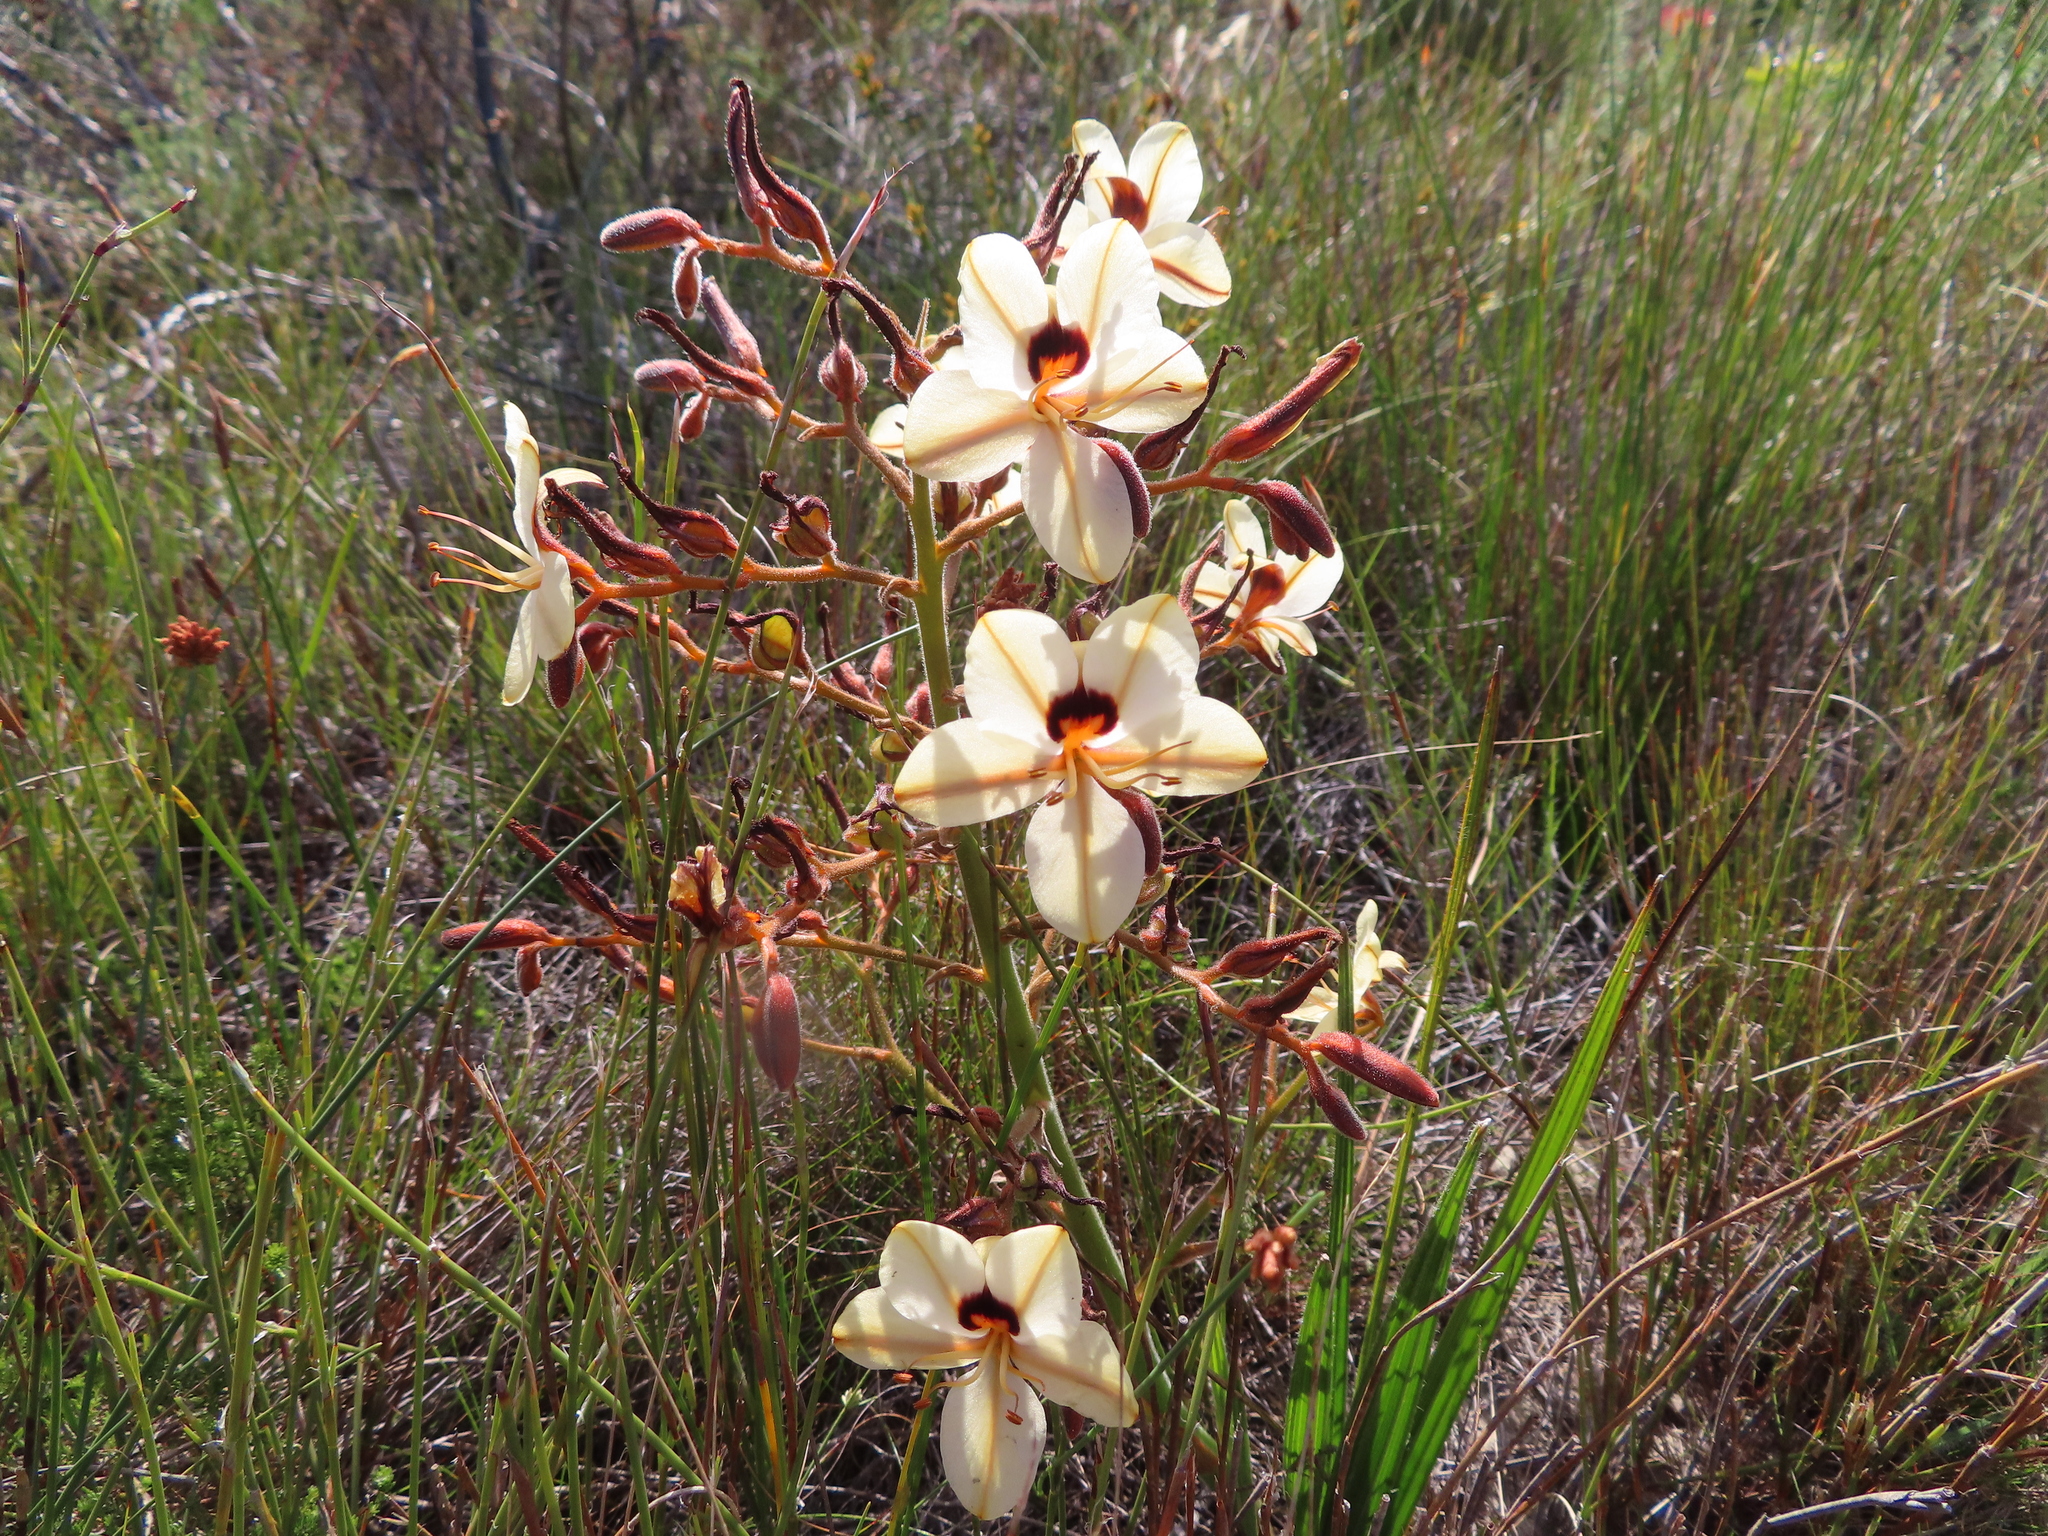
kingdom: Plantae
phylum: Tracheophyta
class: Liliopsida
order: Commelinales
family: Haemodoraceae
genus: Wachendorfia
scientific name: Wachendorfia paniculata
